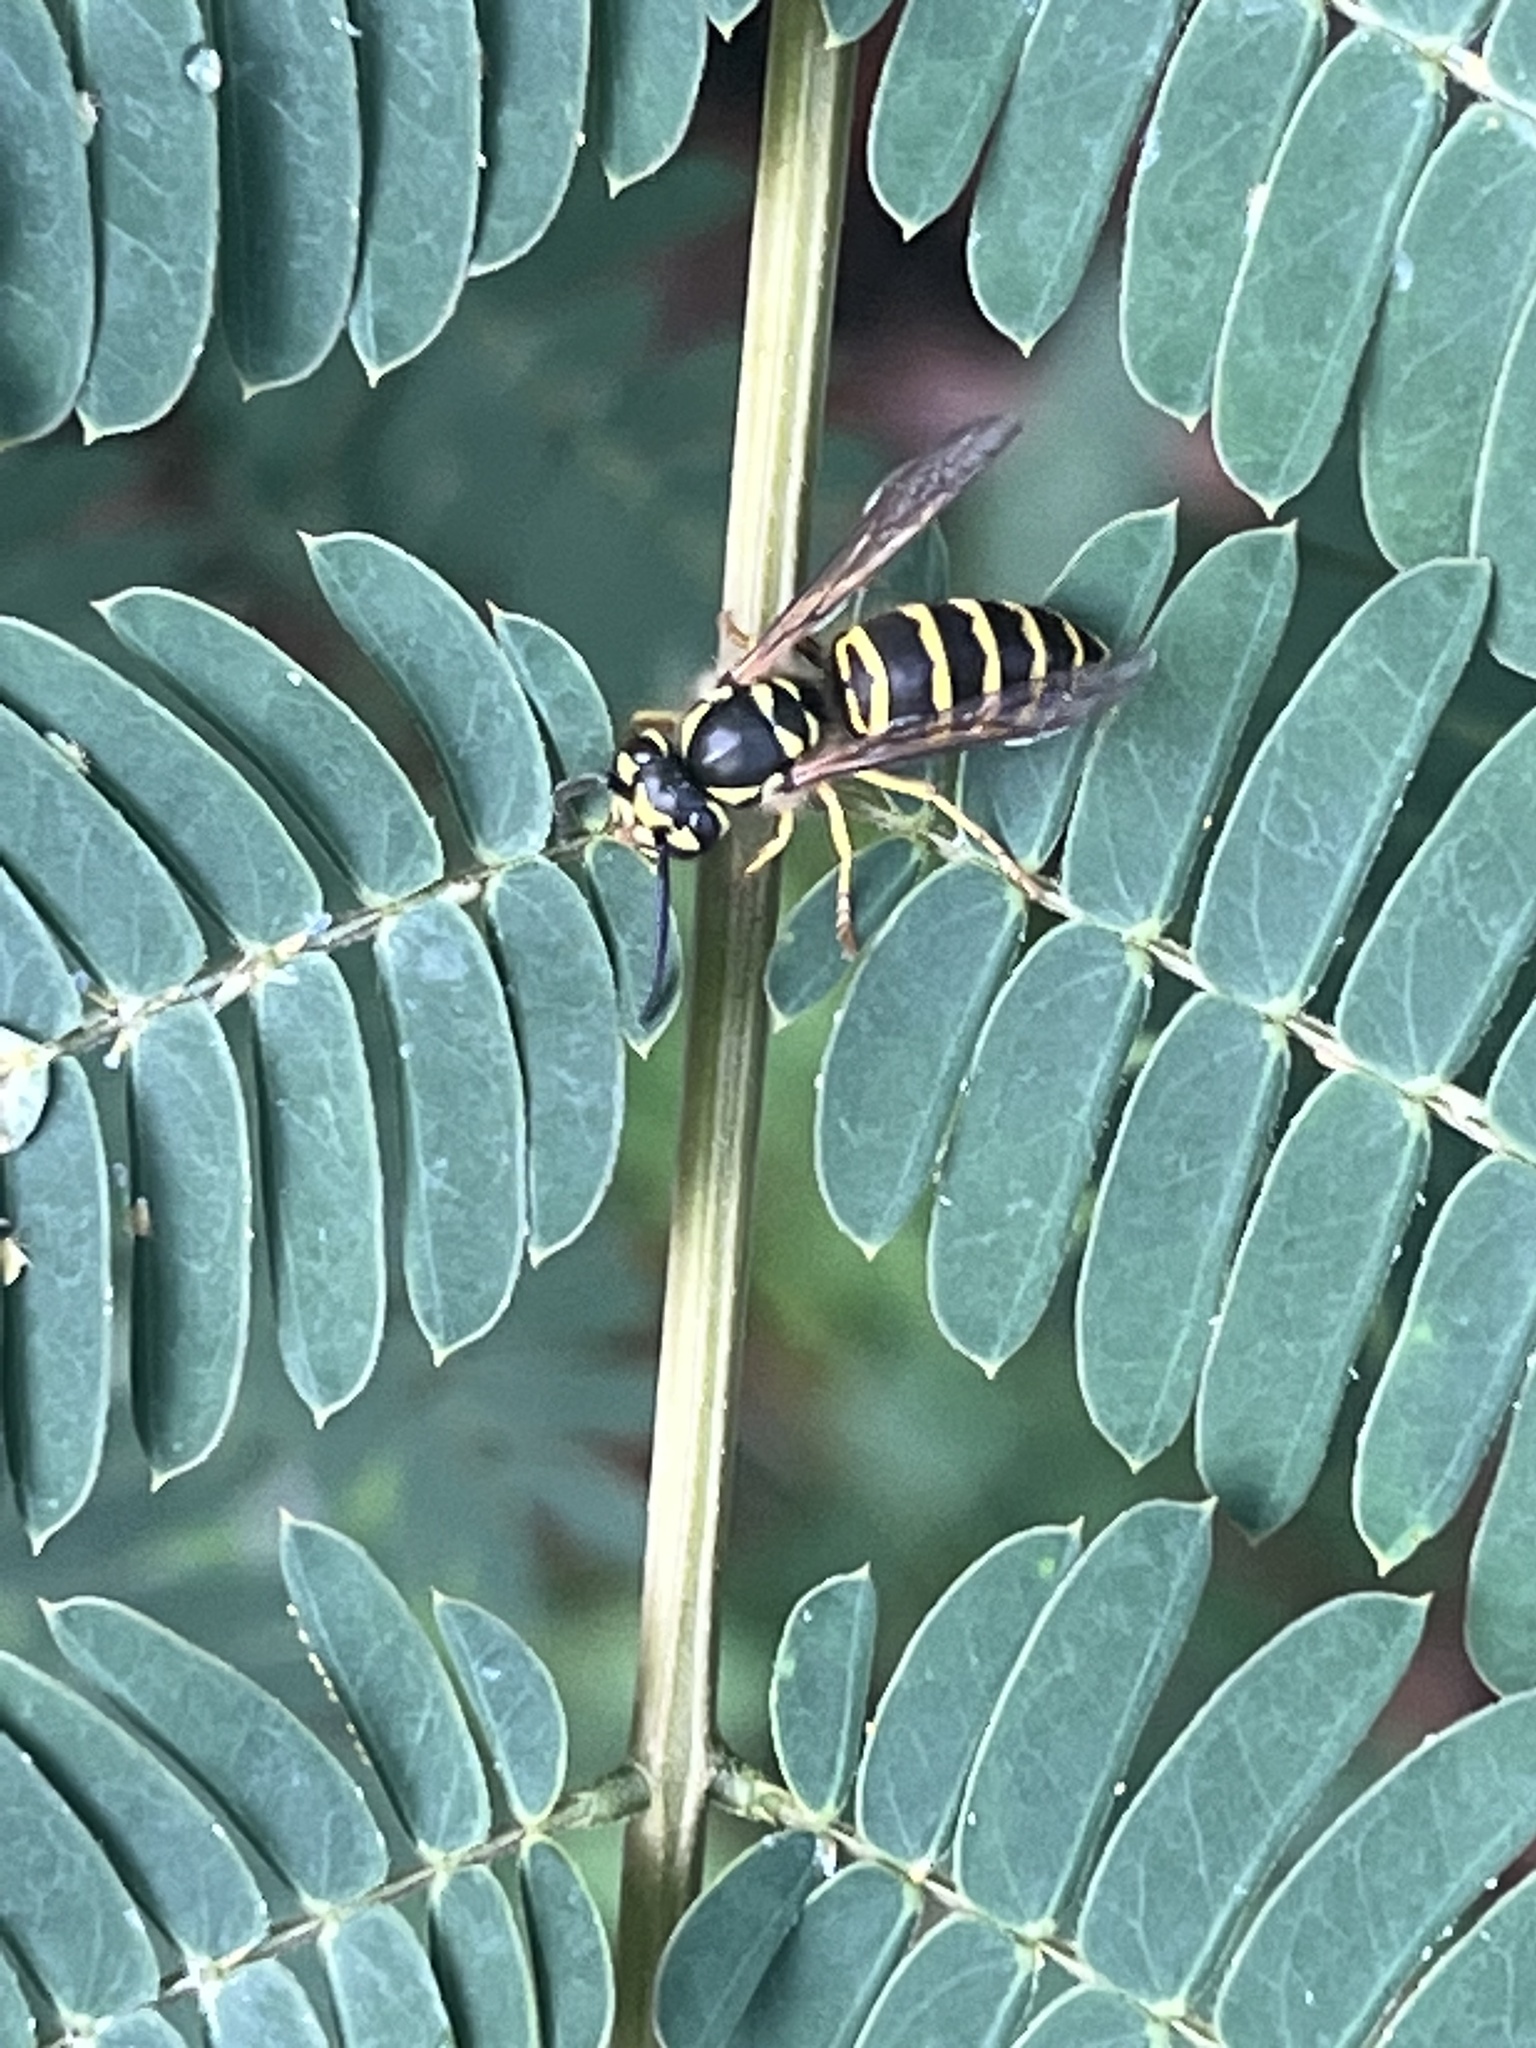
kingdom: Animalia
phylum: Arthropoda
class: Insecta
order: Hymenoptera
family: Vespidae
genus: Vespula
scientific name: Vespula maculifrons
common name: Eastern yellowjacket
